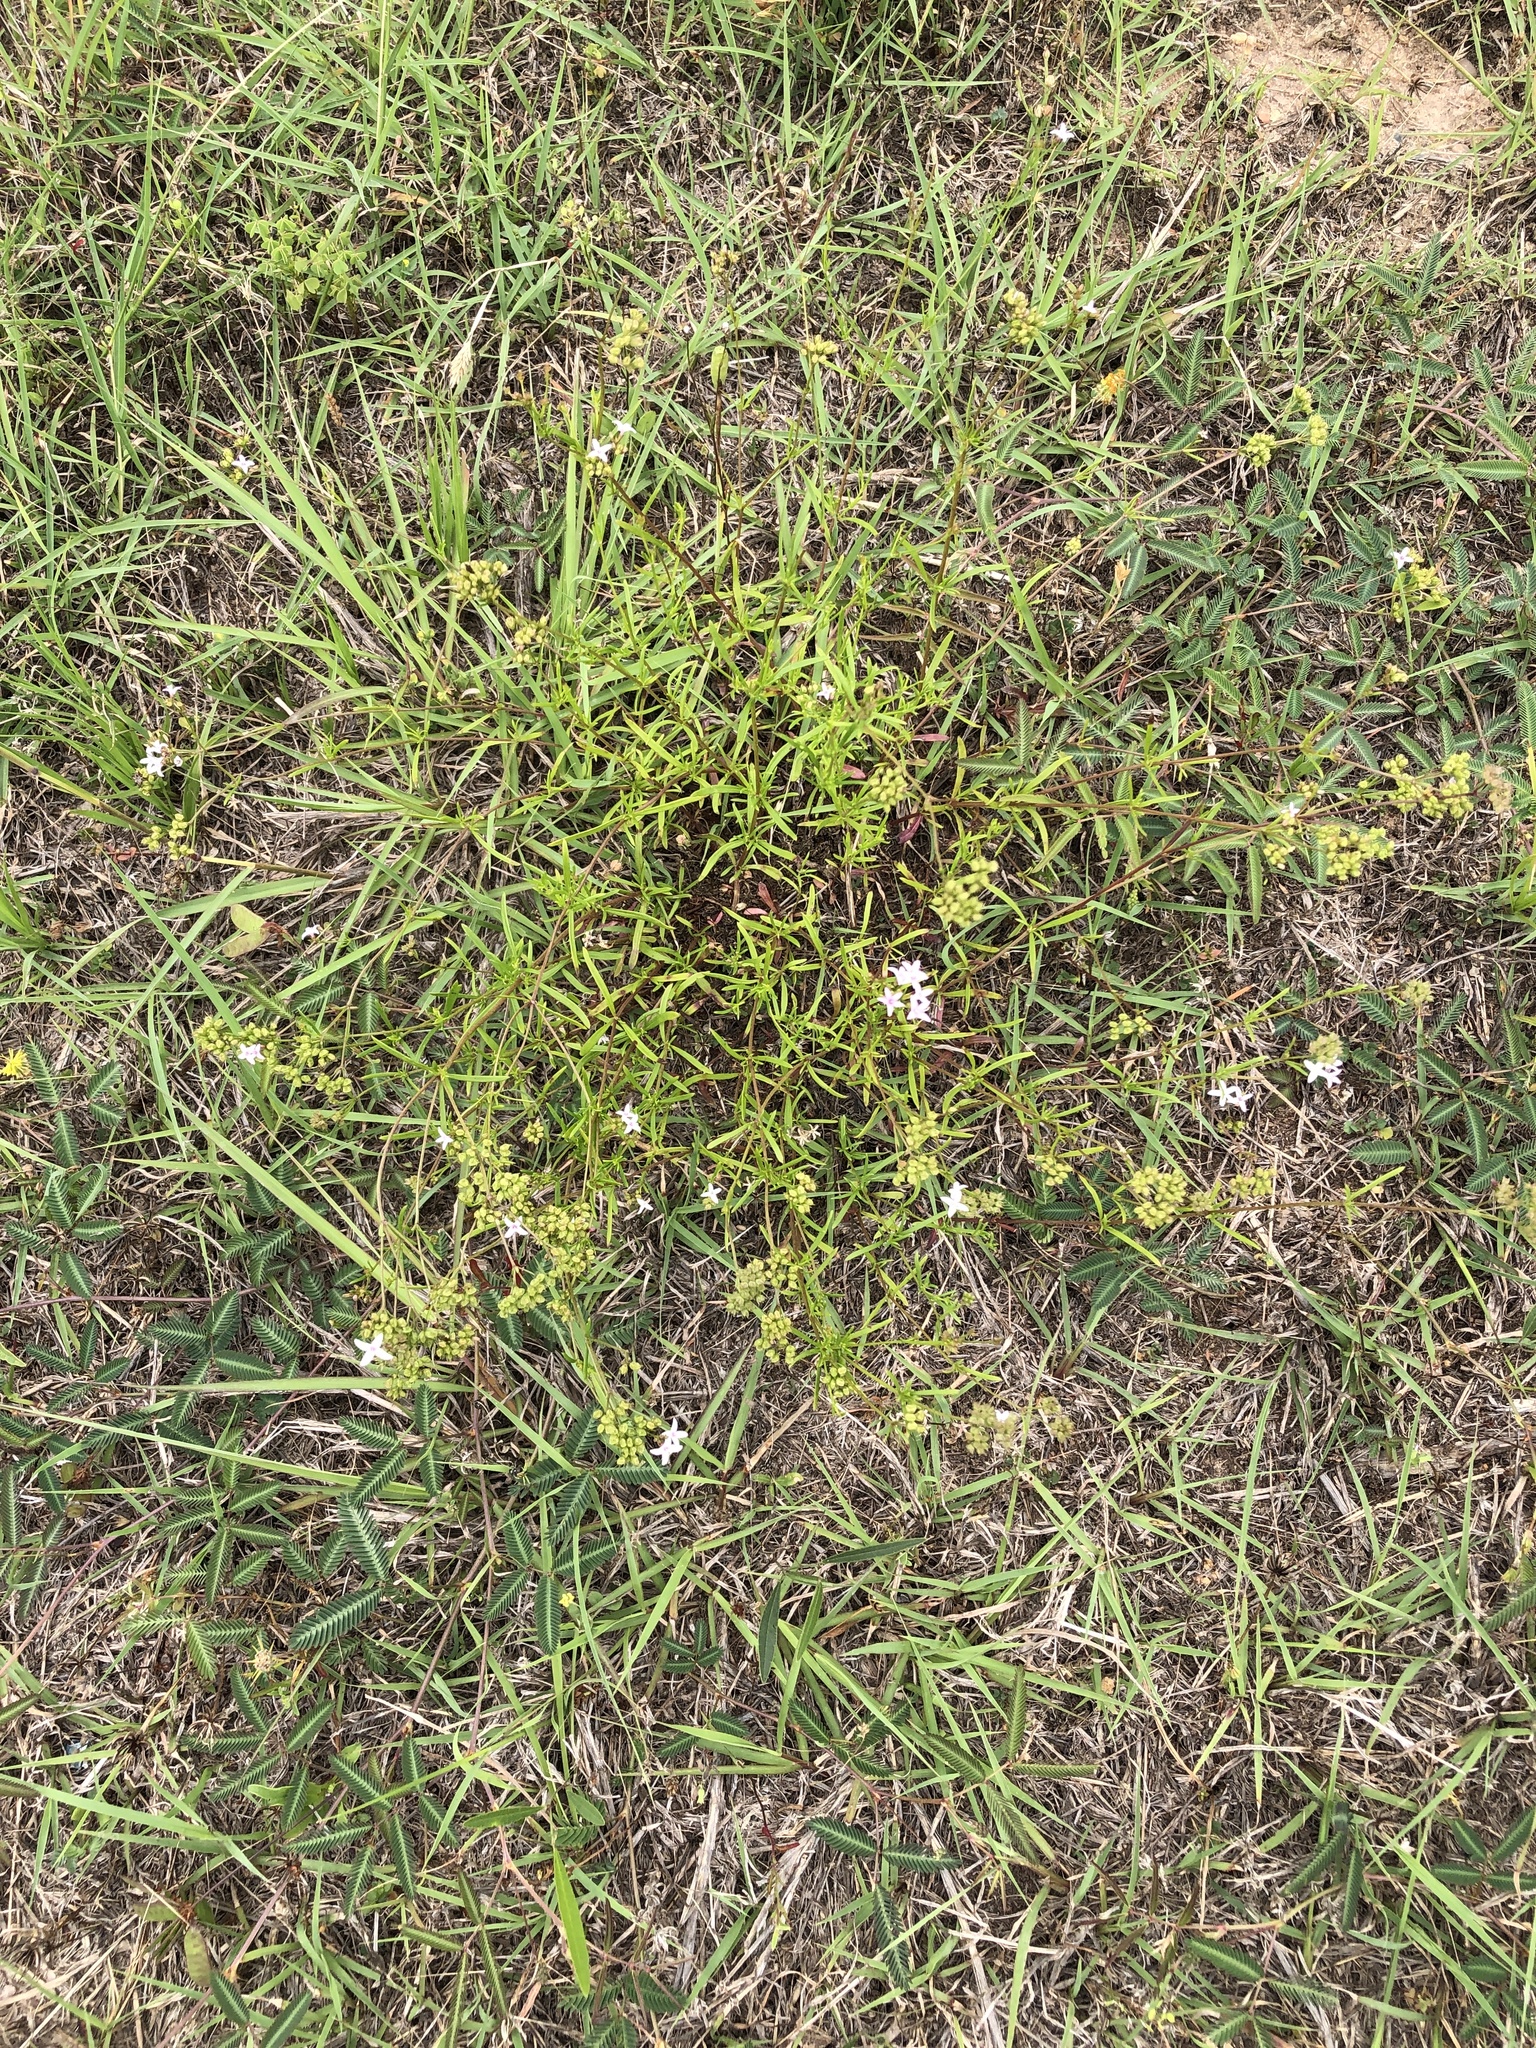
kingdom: Plantae
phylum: Tracheophyta
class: Magnoliopsida
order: Gentianales
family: Rubiaceae
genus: Stenaria
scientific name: Stenaria nigricans
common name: Diamondflowers
